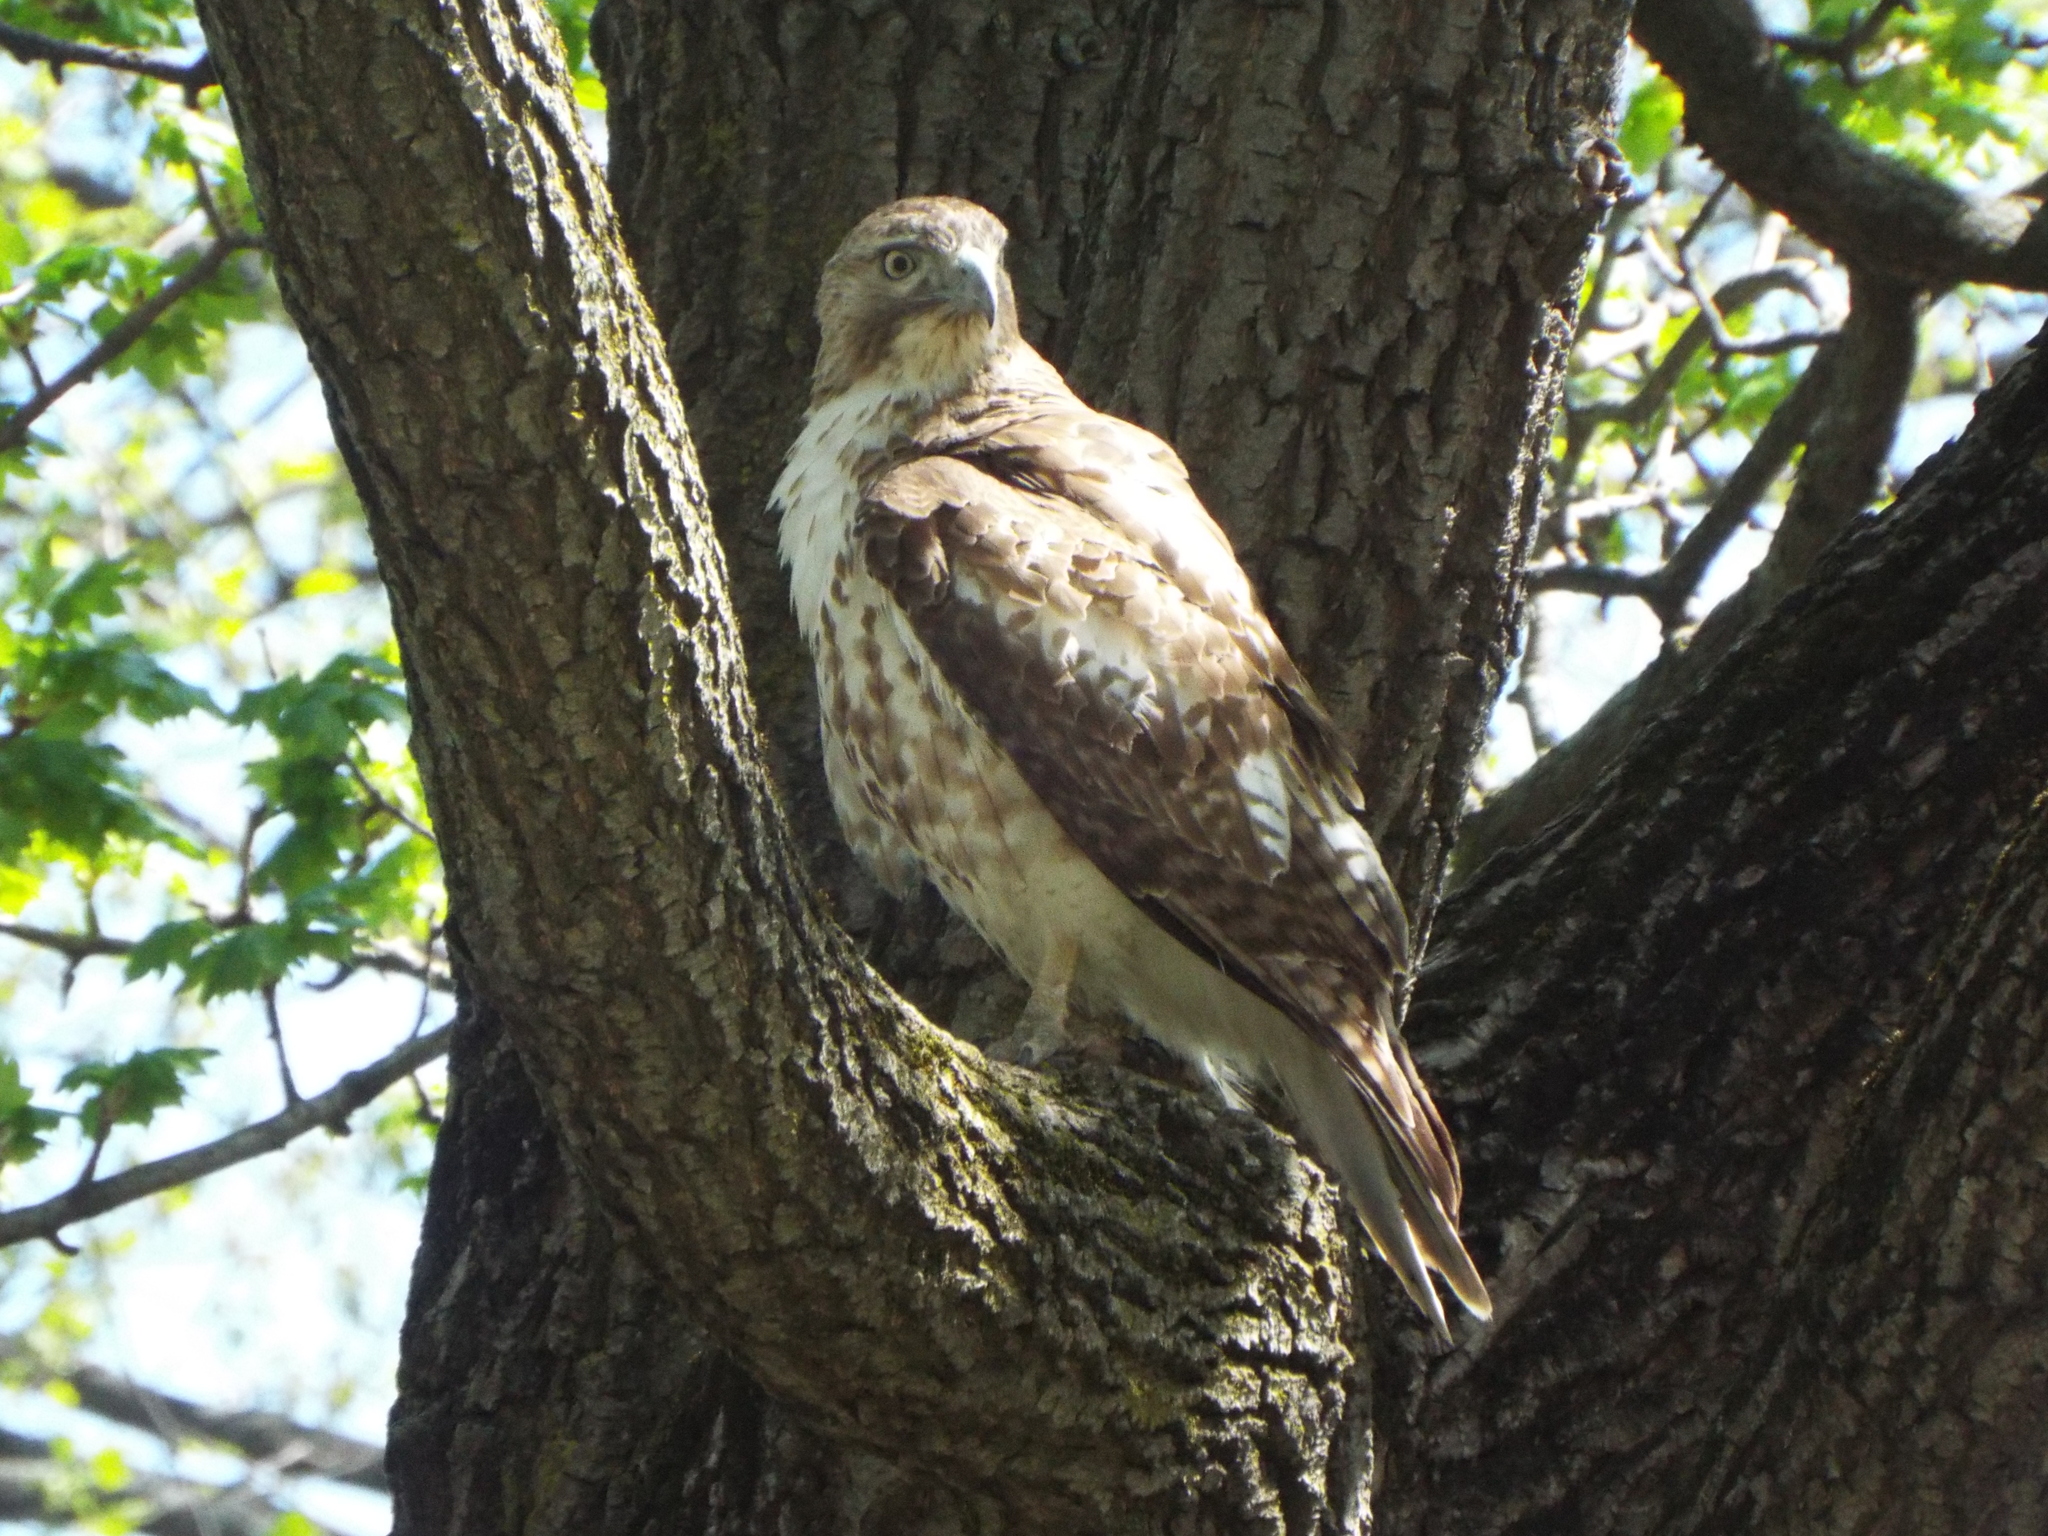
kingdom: Animalia
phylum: Chordata
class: Aves
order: Accipitriformes
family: Accipitridae
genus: Buteo
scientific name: Buteo jamaicensis
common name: Red-tailed hawk
